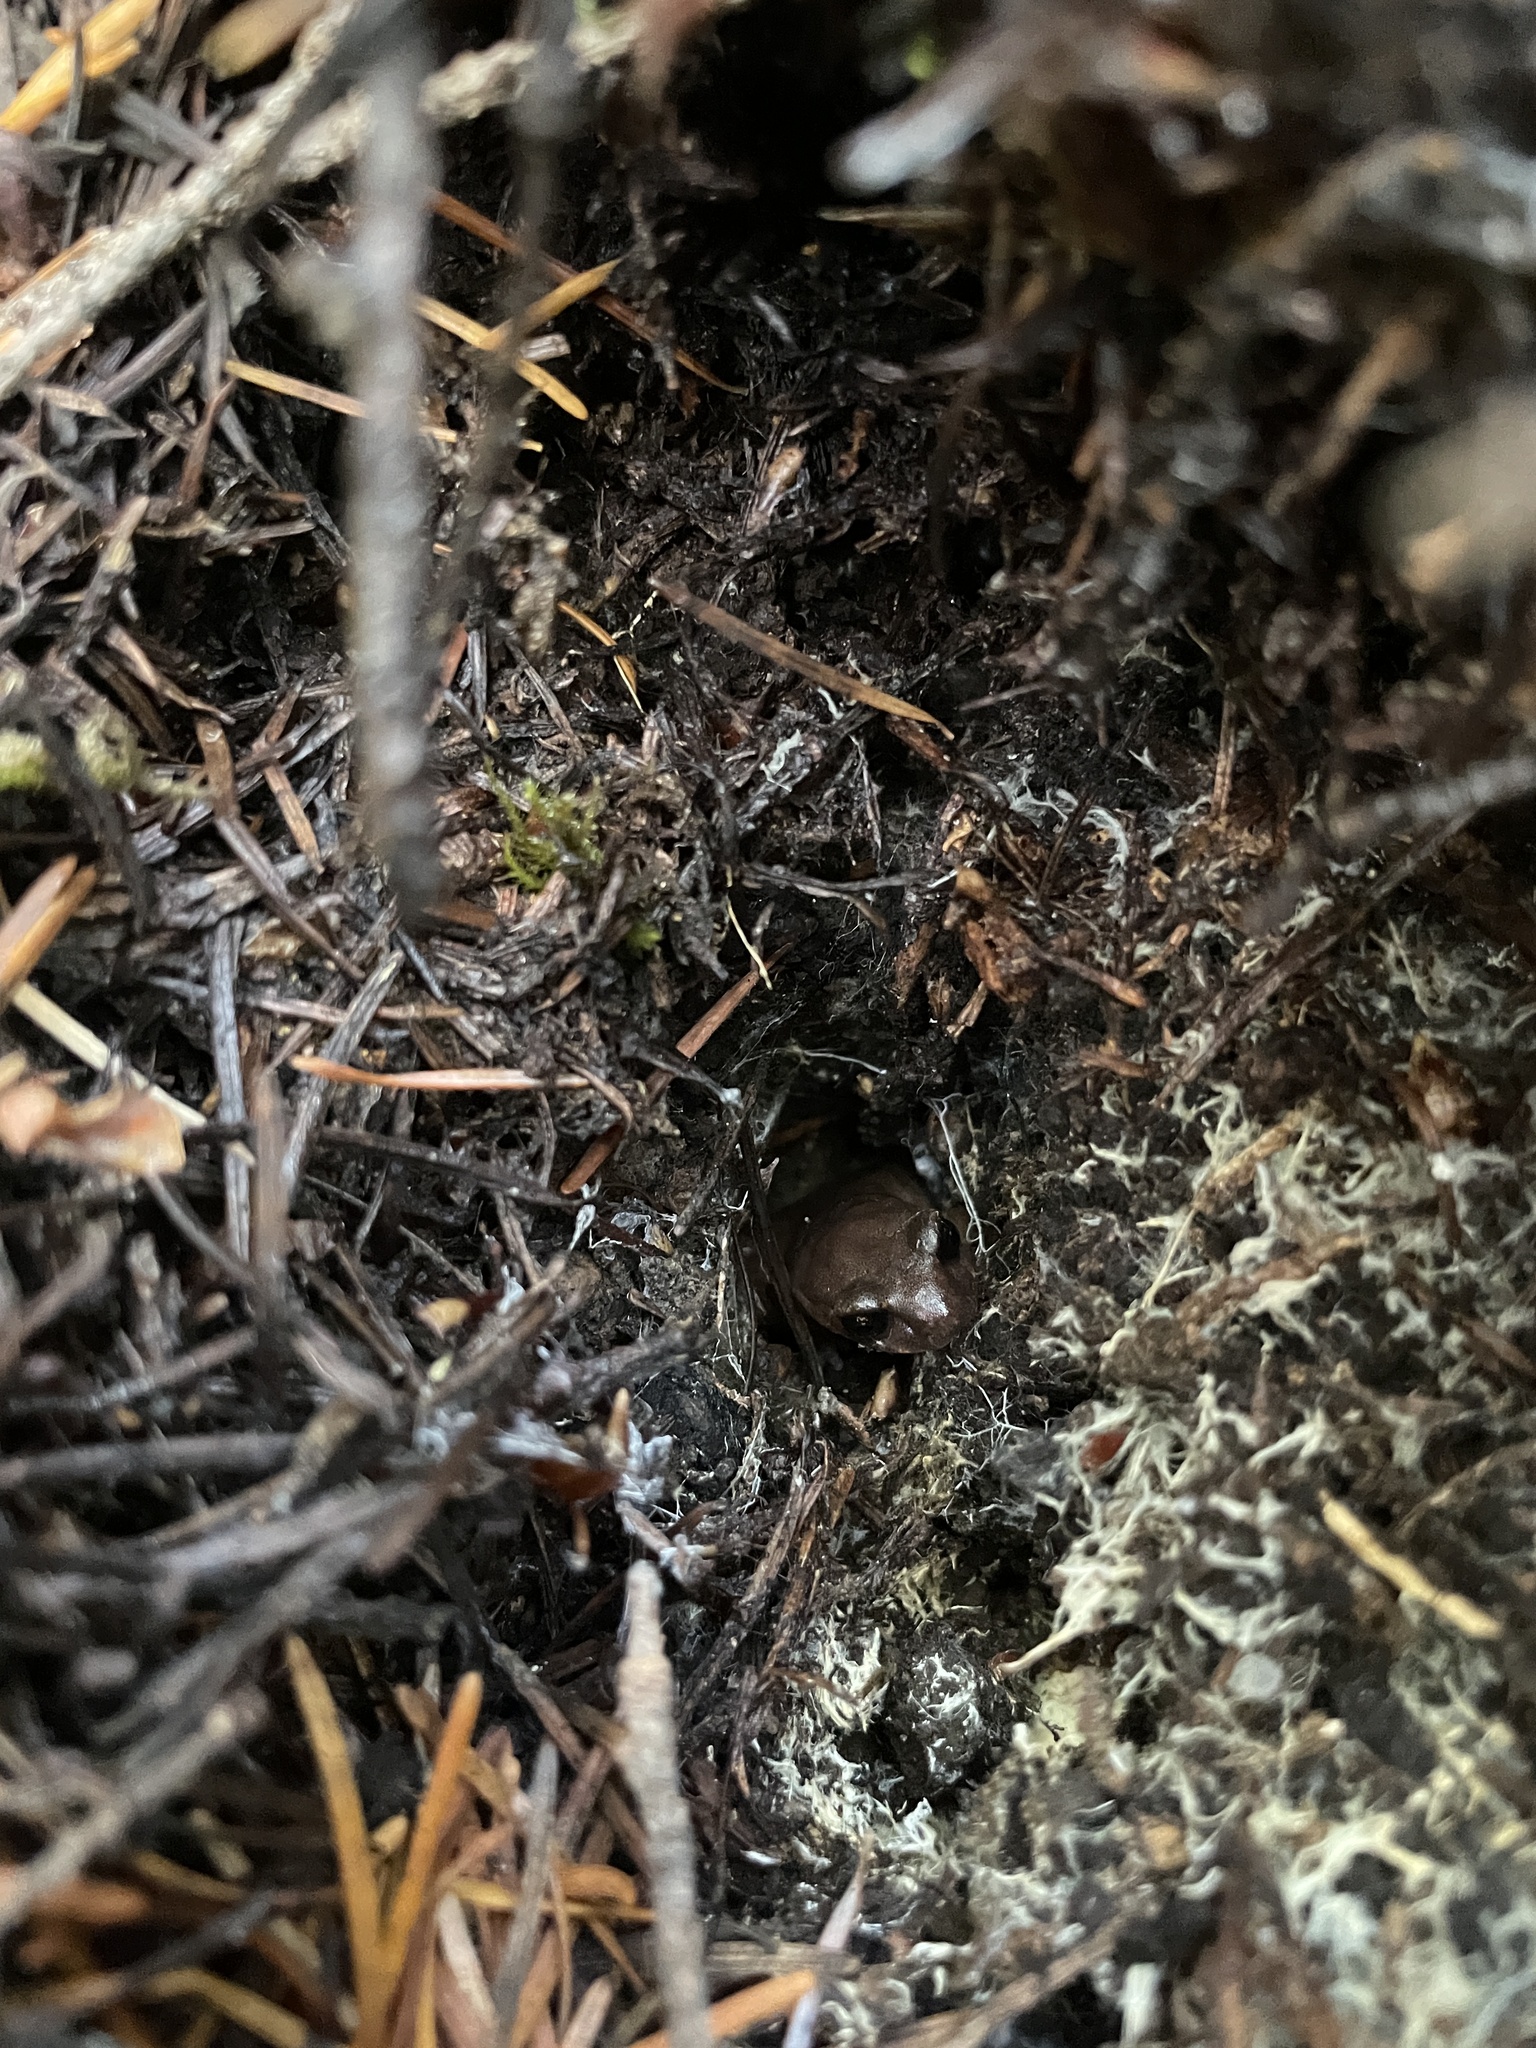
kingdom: Animalia
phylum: Chordata
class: Amphibia
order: Caudata
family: Plethodontidae
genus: Ensatina
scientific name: Ensatina eschscholtzii
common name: Ensatina
